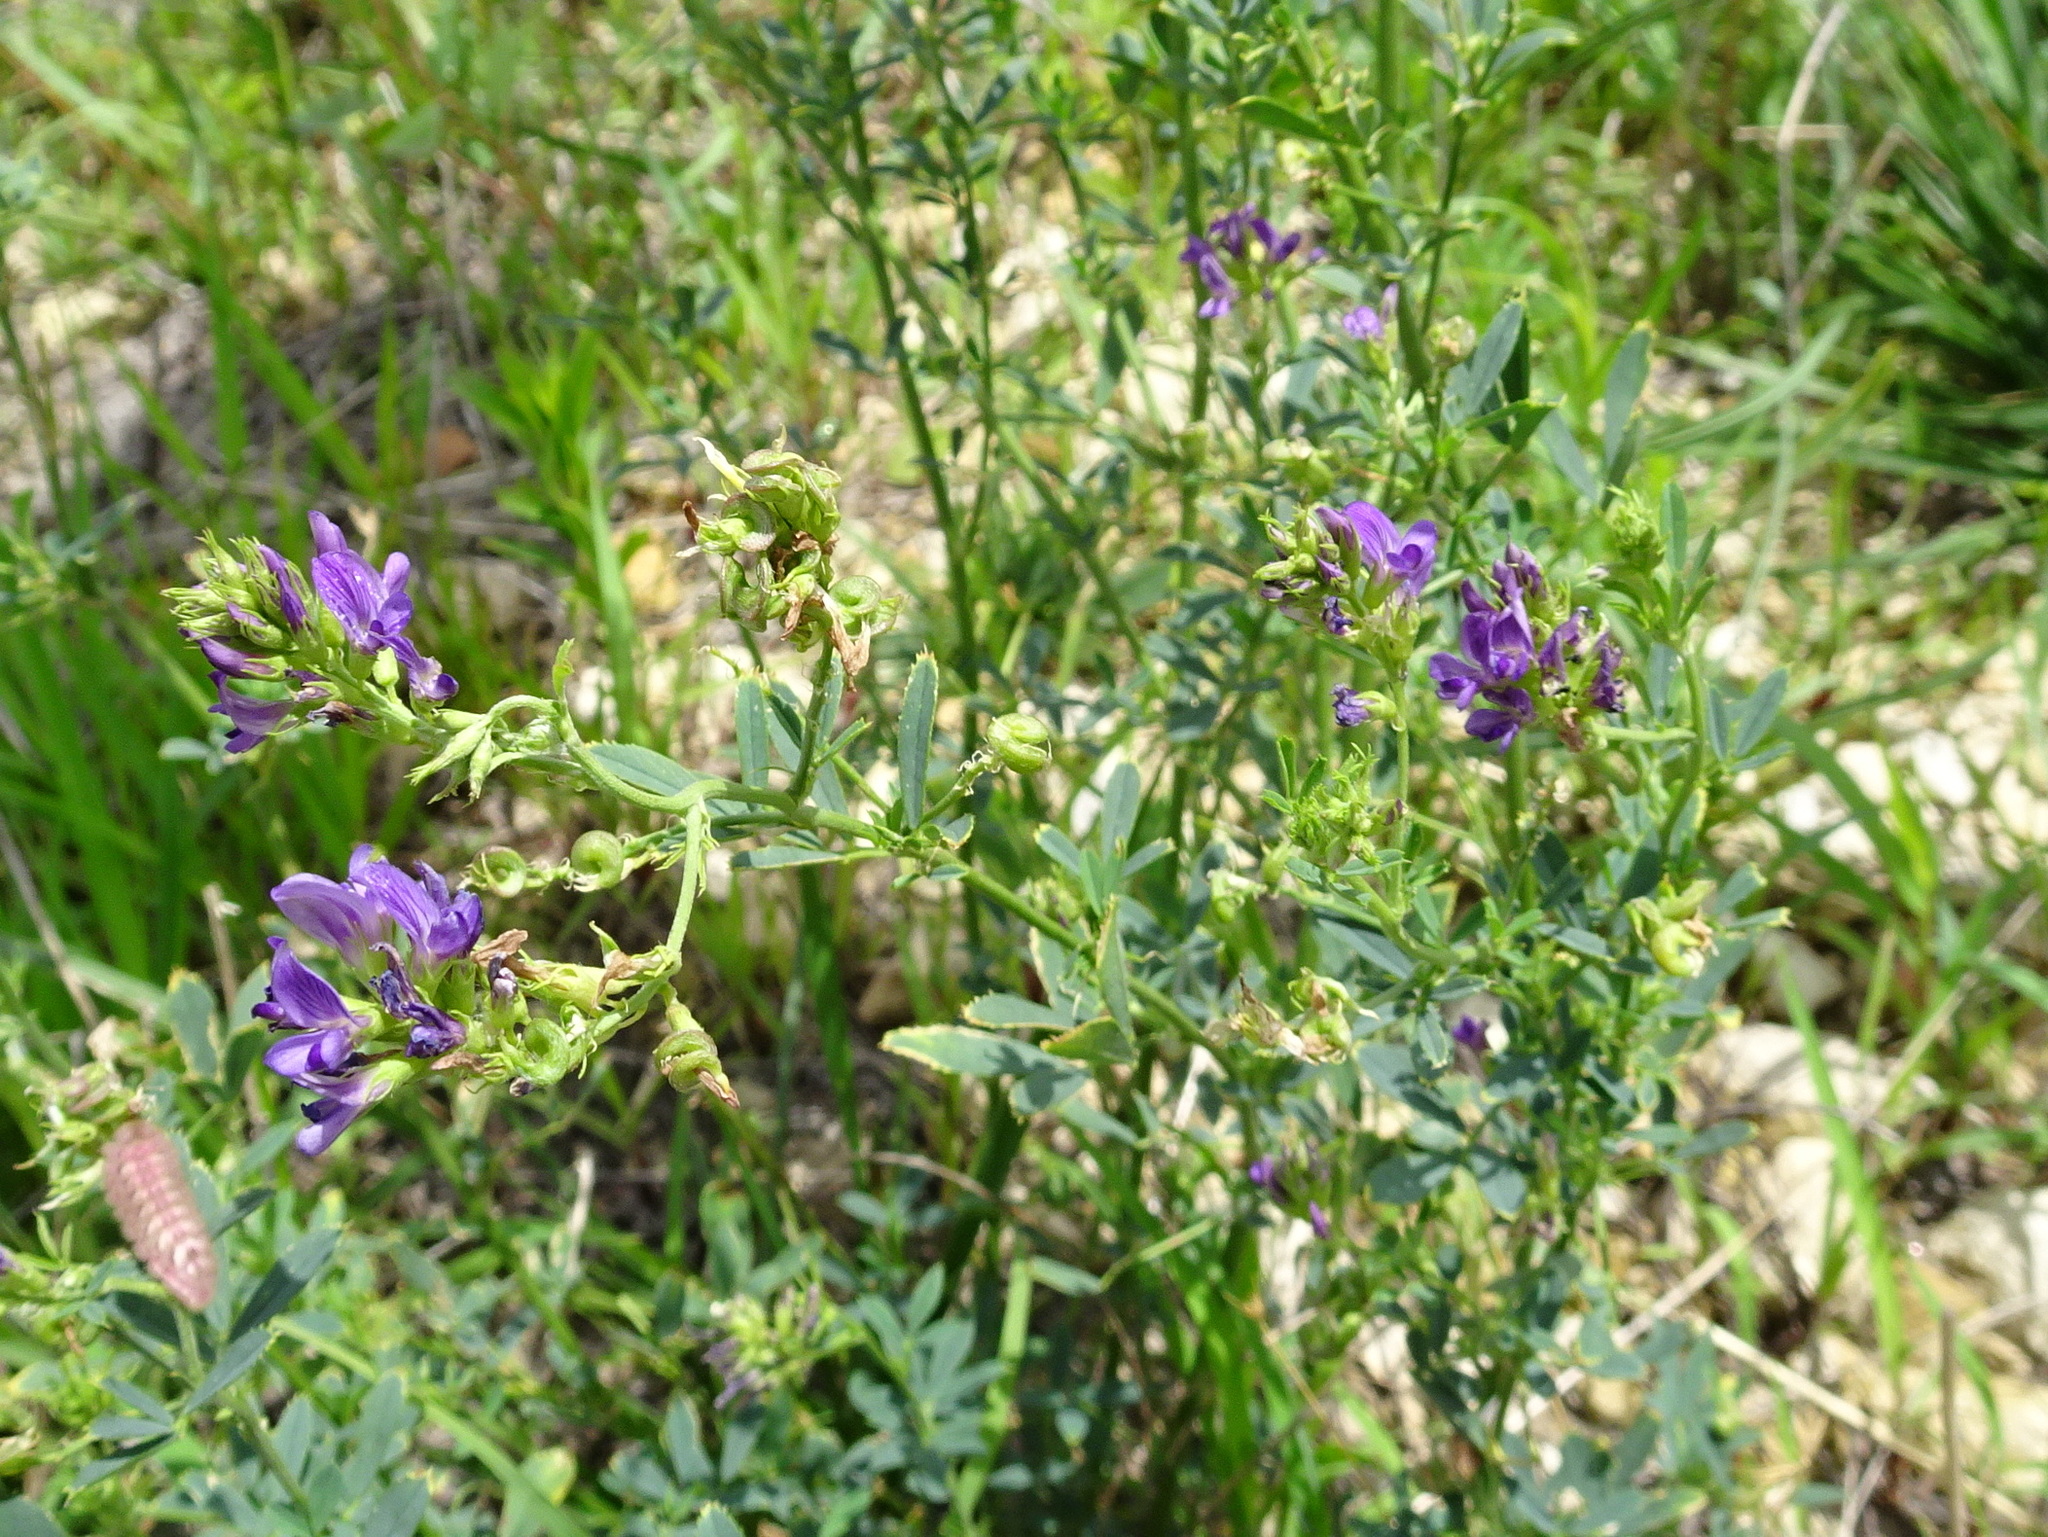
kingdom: Plantae
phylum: Tracheophyta
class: Magnoliopsida
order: Fabales
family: Fabaceae
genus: Medicago
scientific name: Medicago sativa
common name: Alfalfa
